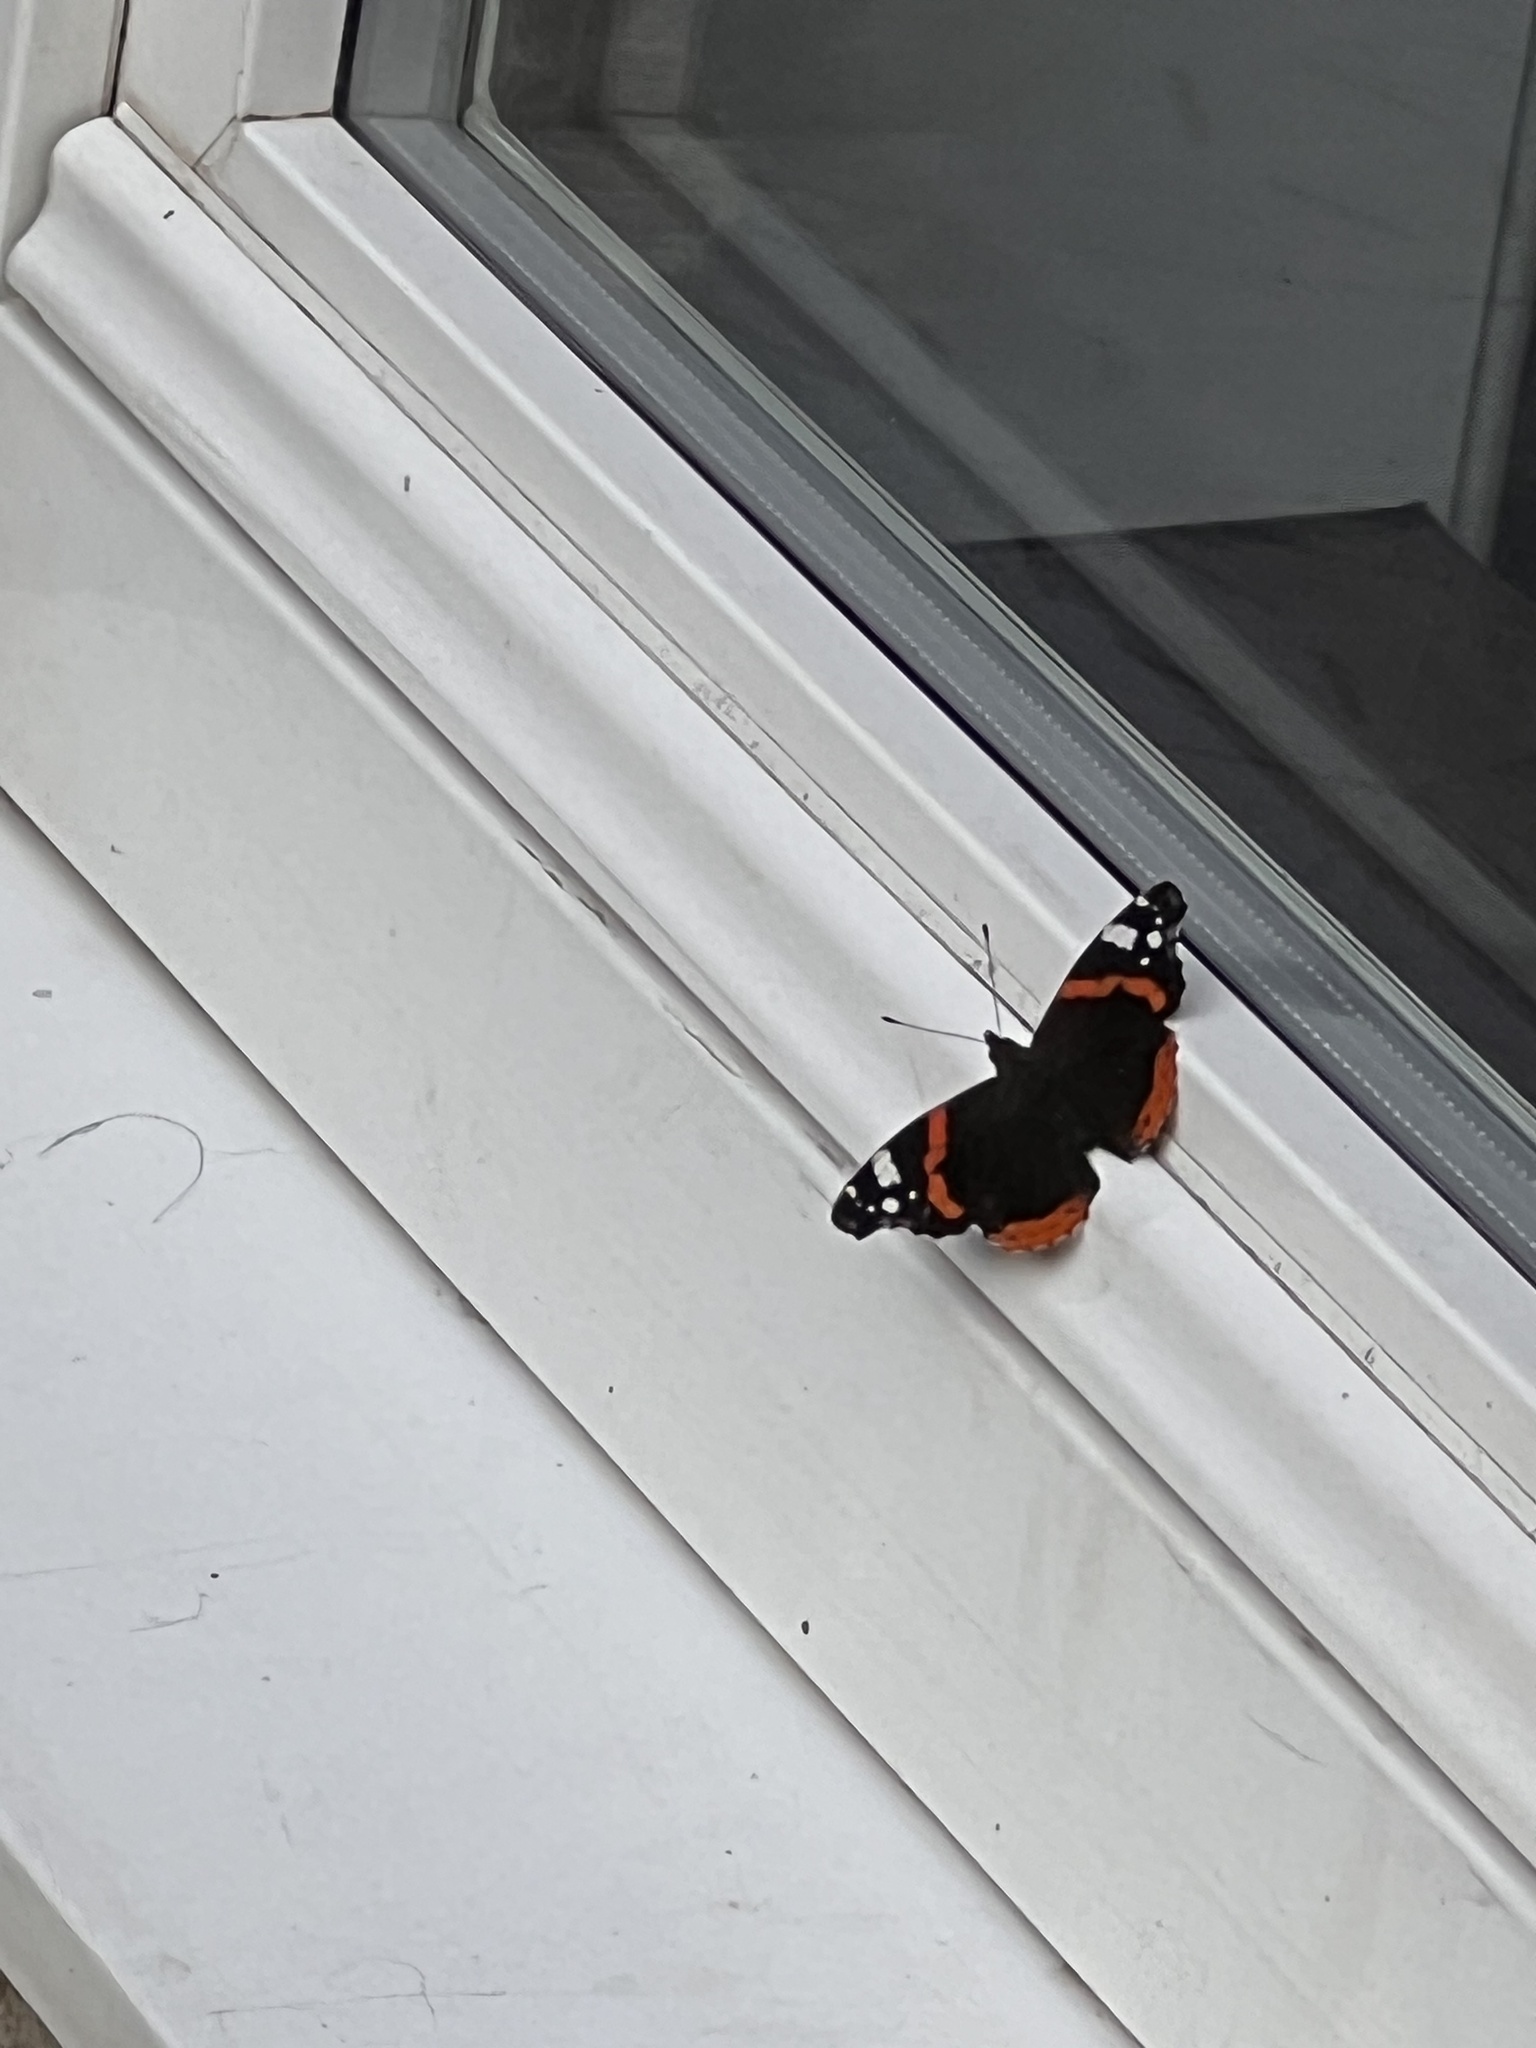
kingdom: Animalia
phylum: Arthropoda
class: Insecta
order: Lepidoptera
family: Nymphalidae
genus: Vanessa
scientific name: Vanessa atalanta
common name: Red admiral
